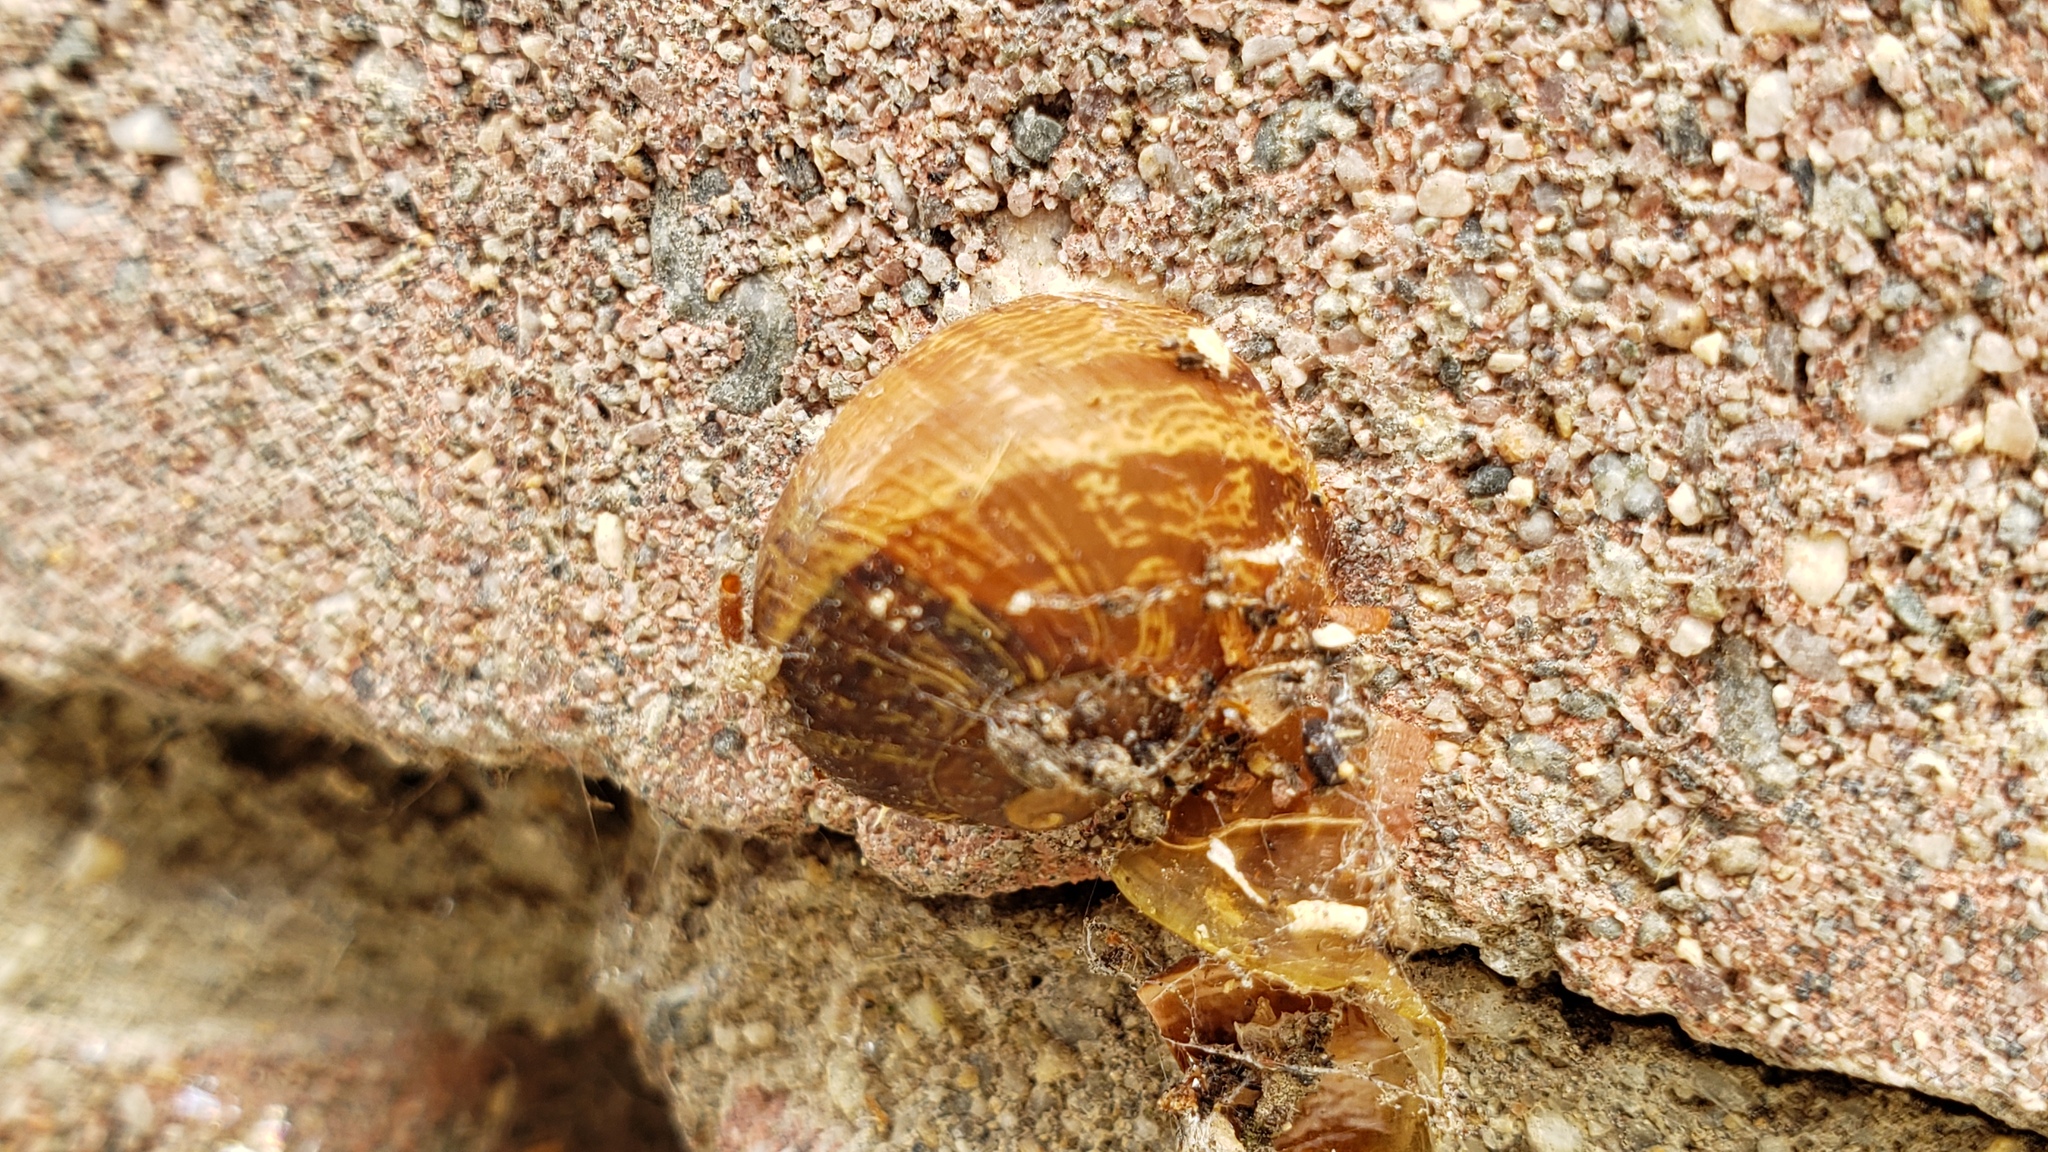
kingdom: Animalia
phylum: Mollusca
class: Gastropoda
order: Stylommatophora
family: Helicidae
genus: Cornu
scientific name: Cornu aspersum
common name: Brown garden snail
